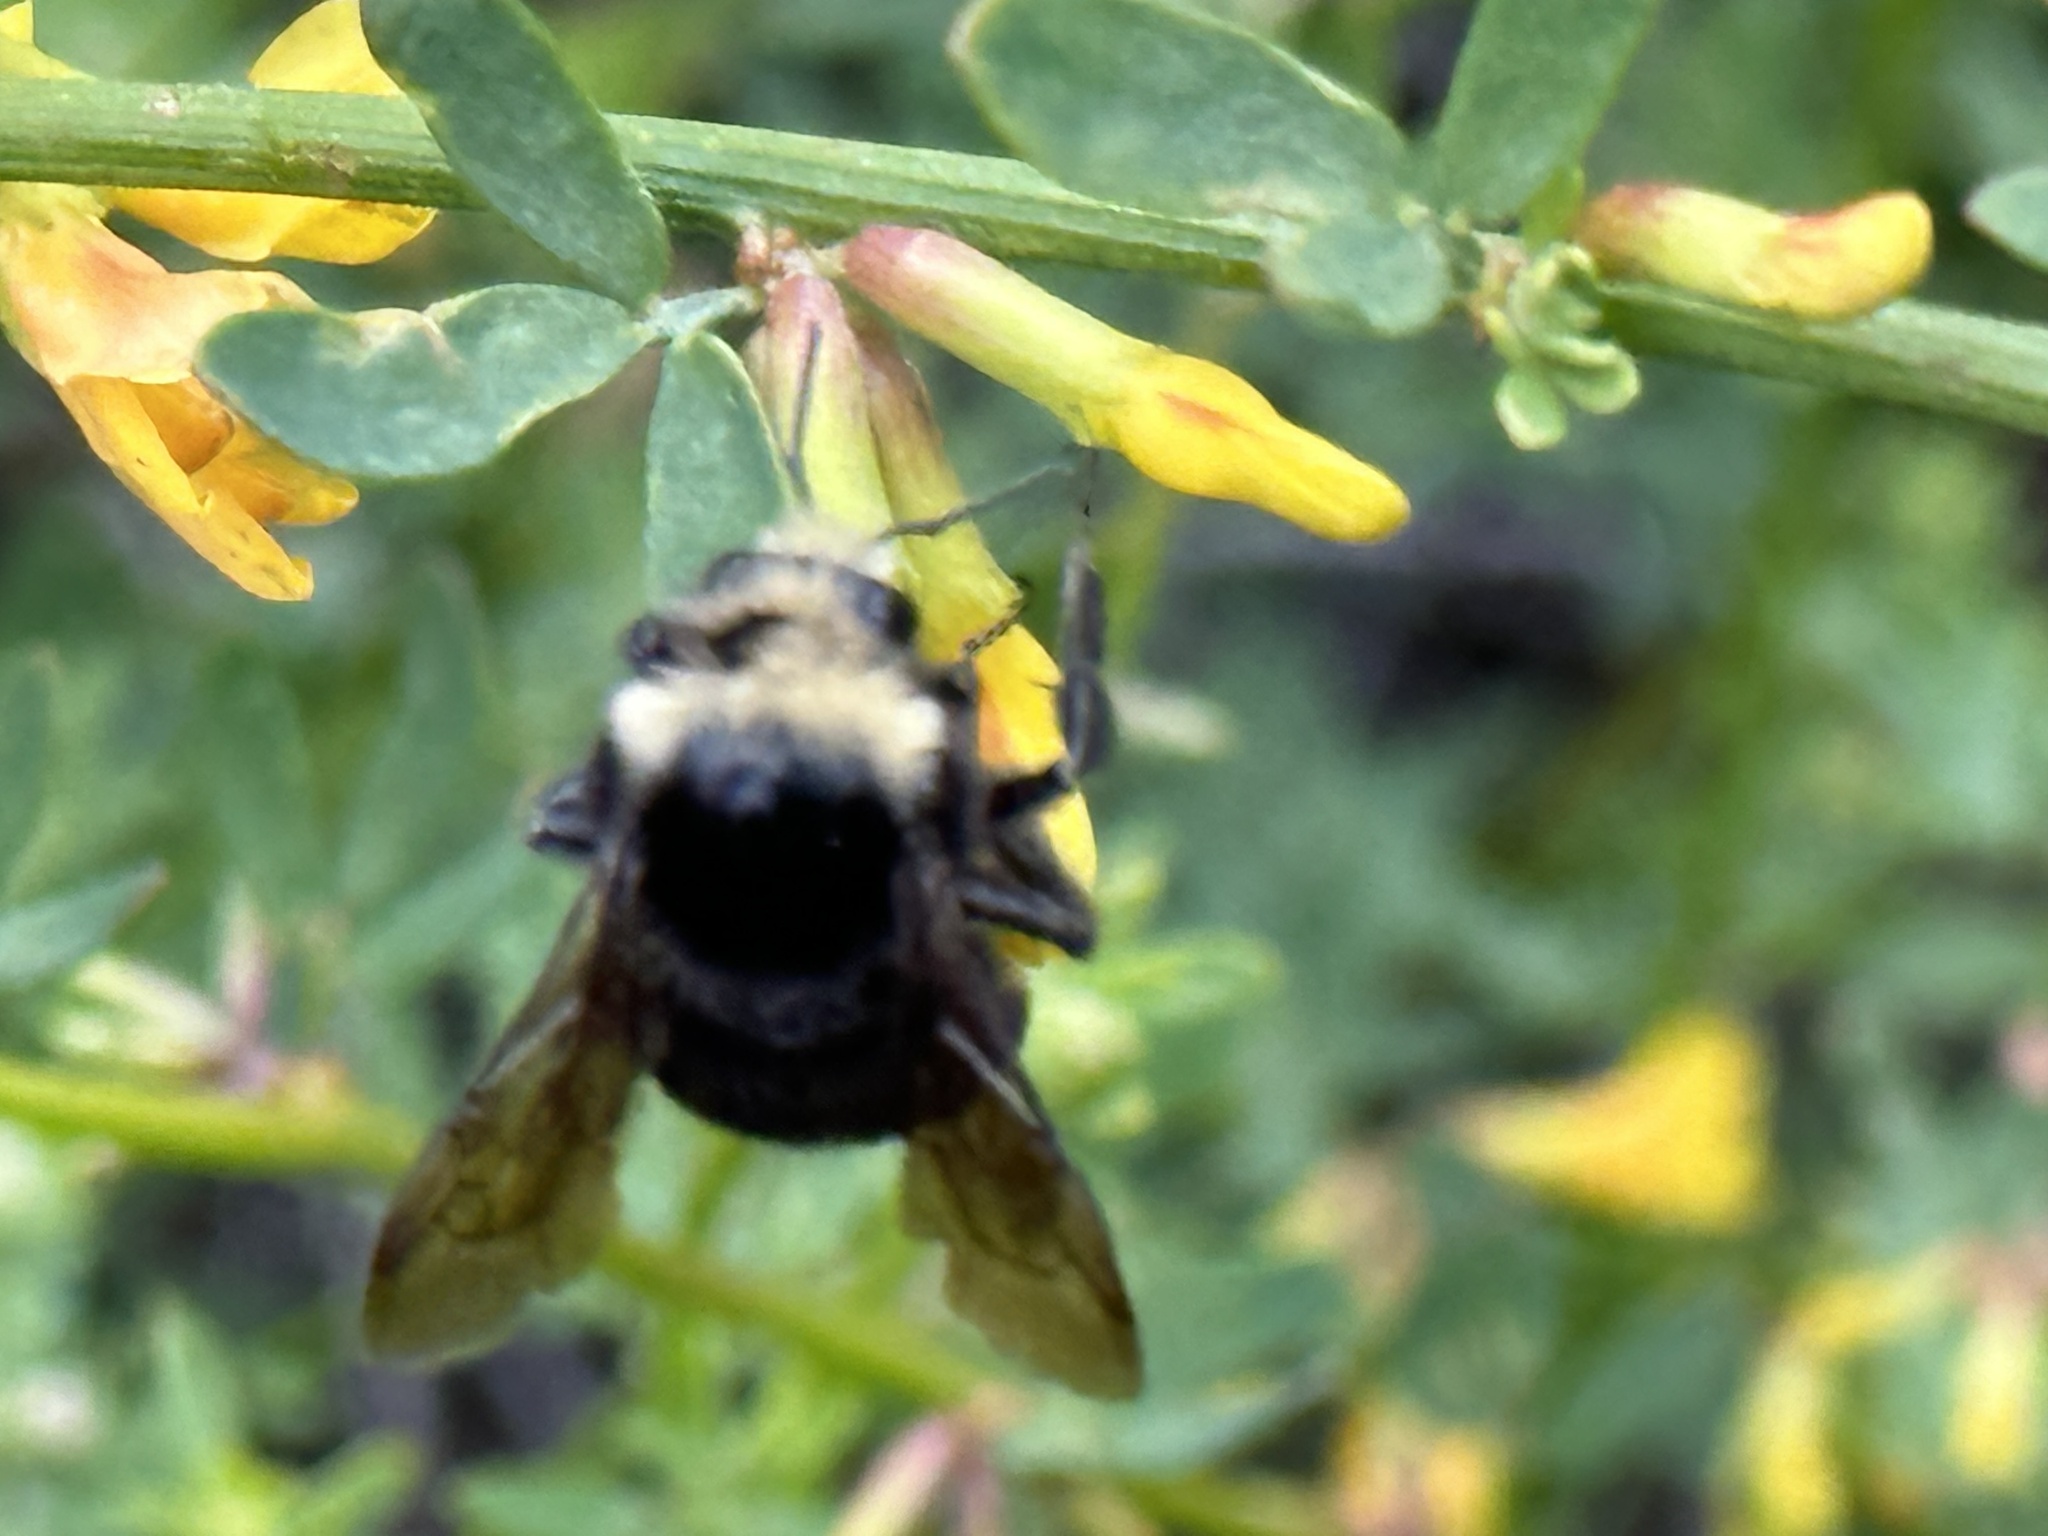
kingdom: Animalia
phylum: Arthropoda
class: Insecta
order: Hymenoptera
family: Apidae
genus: Bombus
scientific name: Bombus vosnesenskii
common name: Vosnesensky bumble bee
